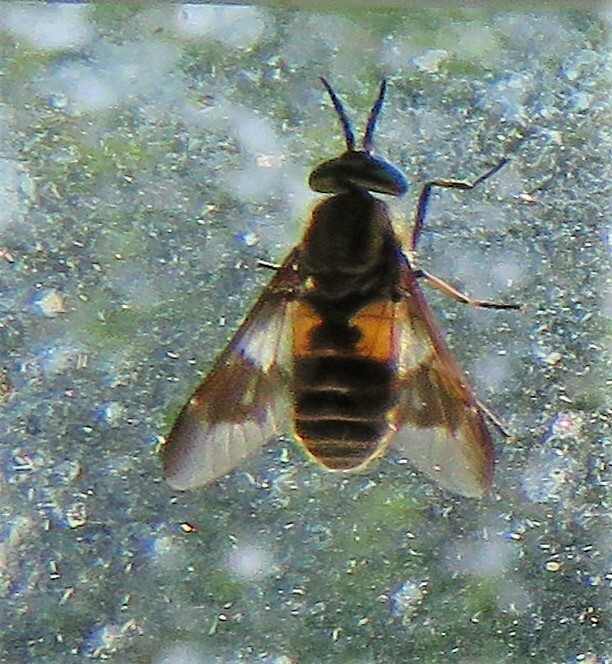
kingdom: Animalia
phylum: Arthropoda
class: Insecta
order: Diptera
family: Tabanidae
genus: Chrysops
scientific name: Chrysops frigidus
